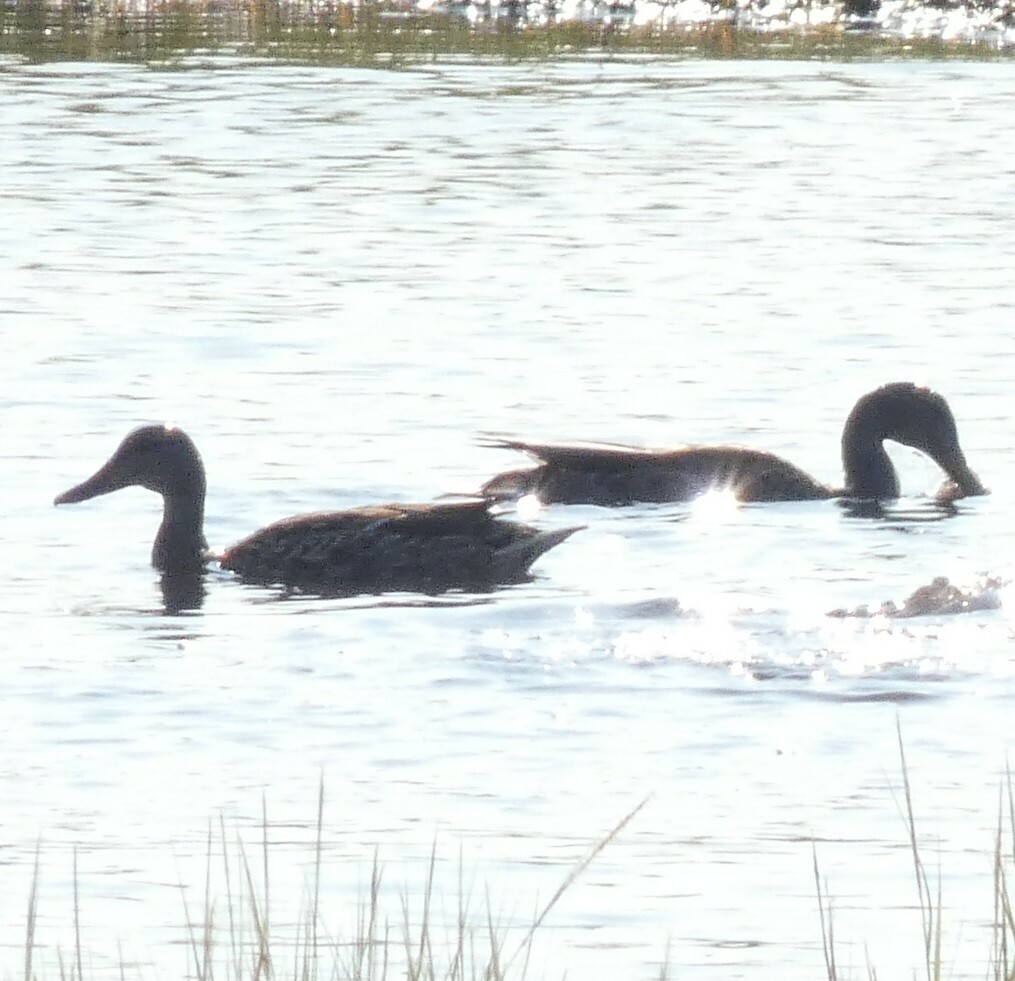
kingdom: Animalia
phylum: Chordata
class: Aves
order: Anseriformes
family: Anatidae
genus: Anas
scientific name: Anas platyrhynchos
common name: Mallard
